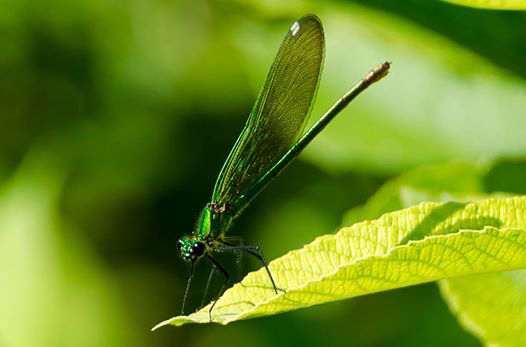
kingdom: Animalia
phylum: Arthropoda
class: Insecta
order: Odonata
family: Calopterygidae
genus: Calopteryx
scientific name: Calopteryx splendens
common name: Banded demoiselle
